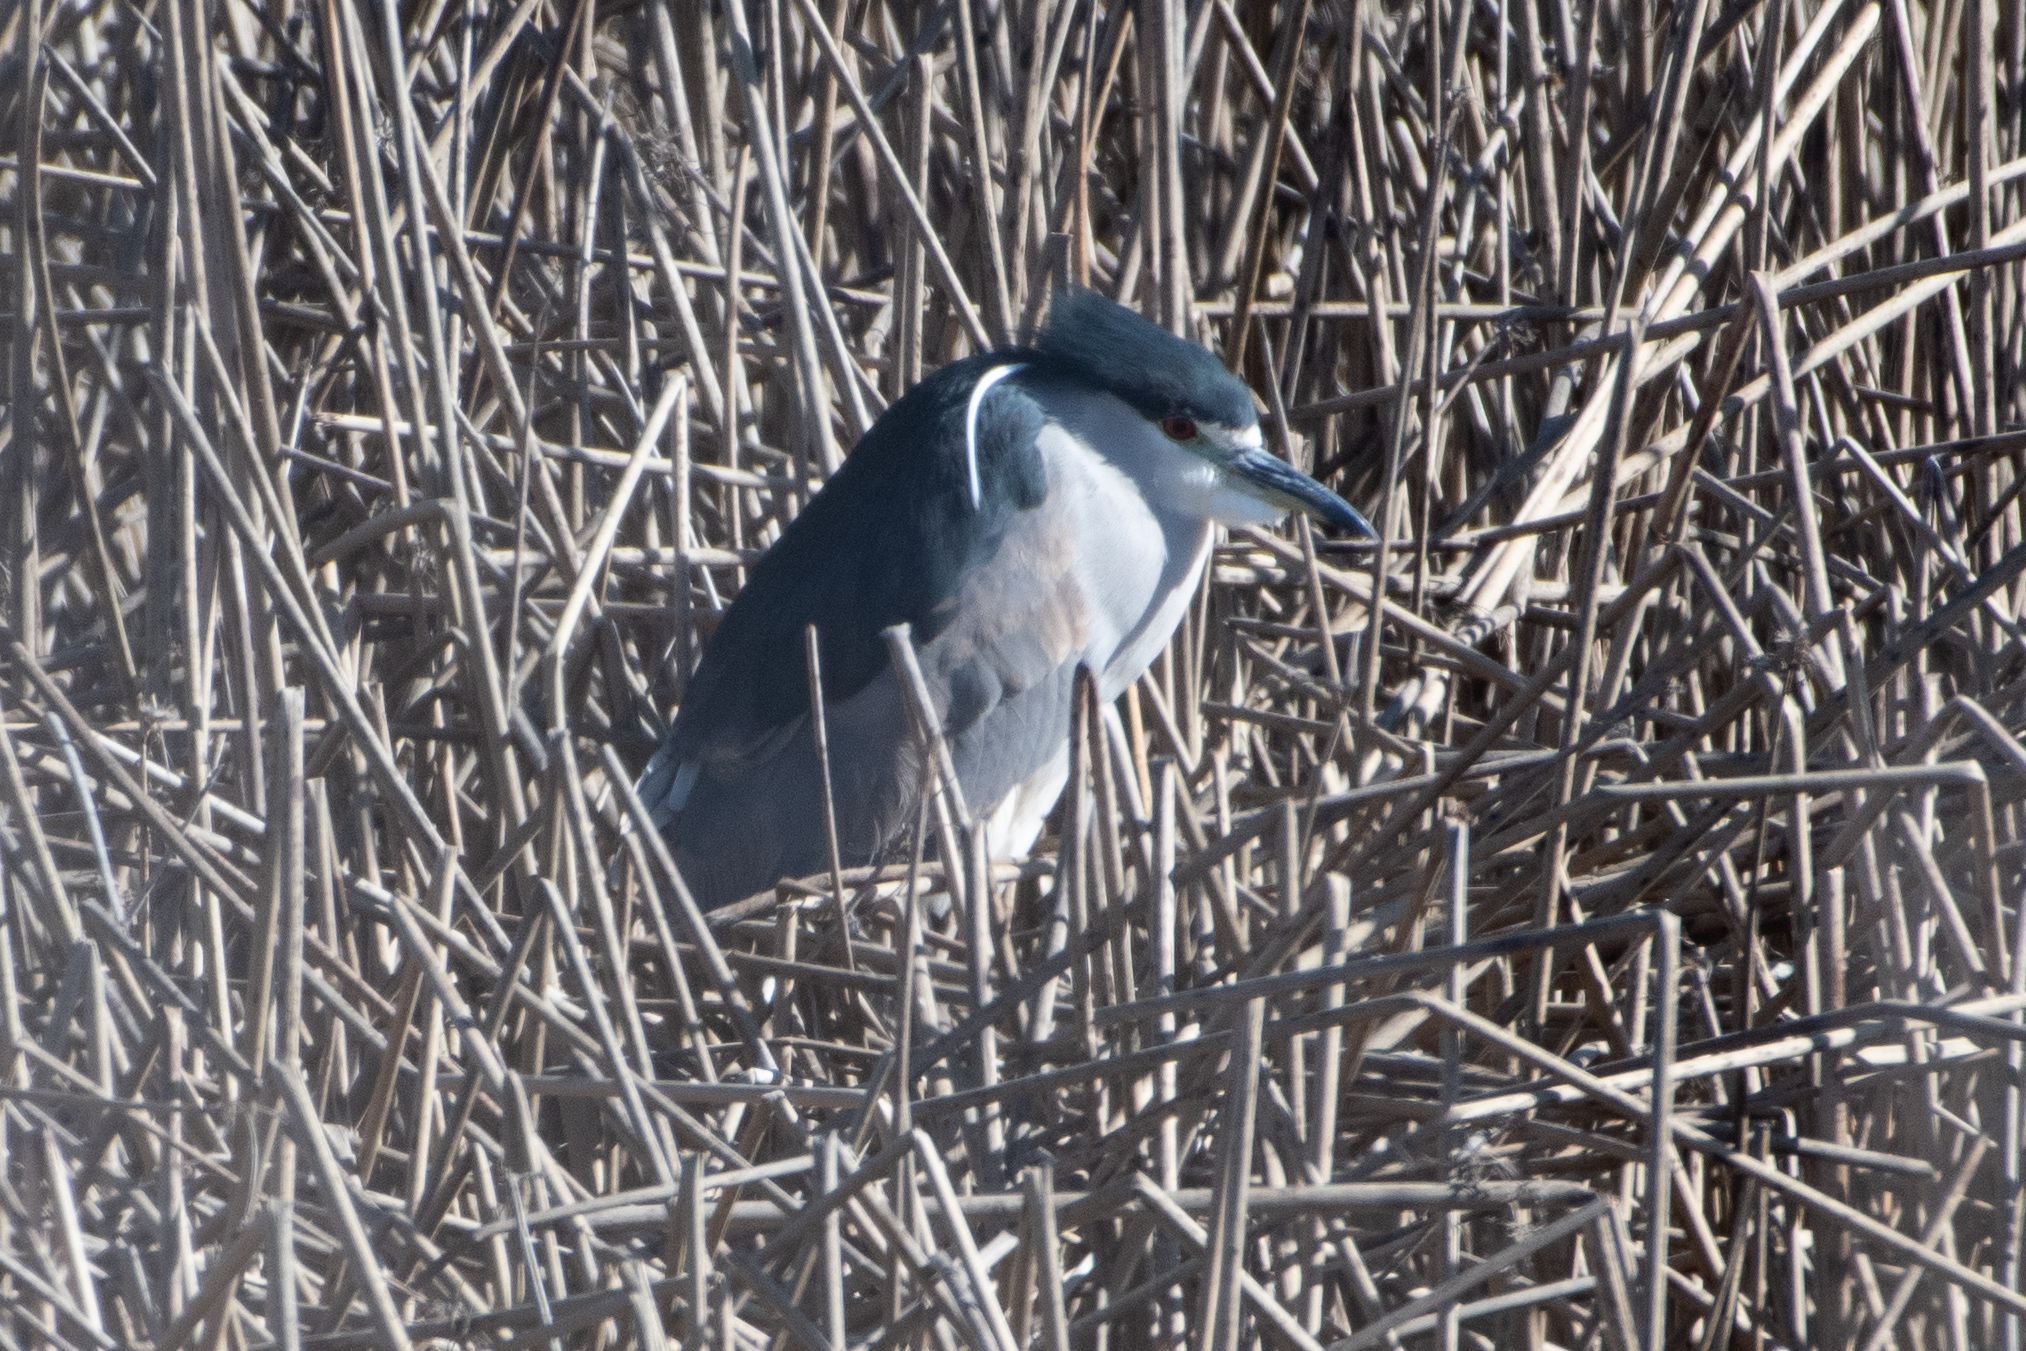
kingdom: Animalia
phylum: Chordata
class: Aves
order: Pelecaniformes
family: Ardeidae
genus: Nycticorax
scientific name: Nycticorax nycticorax
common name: Black-crowned night heron
